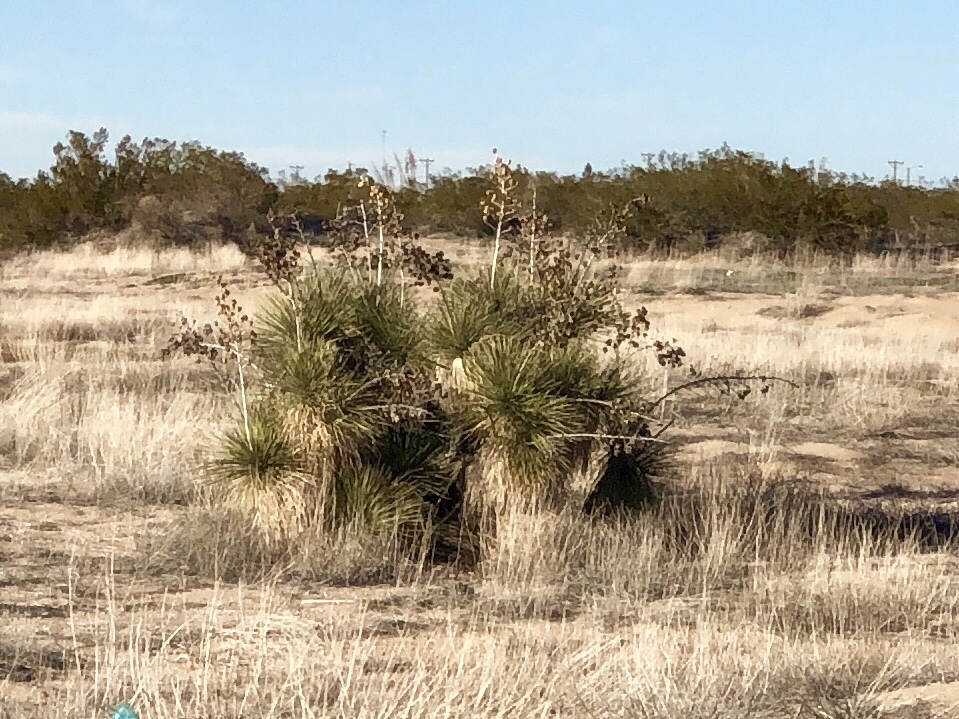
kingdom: Plantae
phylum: Tracheophyta
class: Liliopsida
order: Asparagales
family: Asparagaceae
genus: Yucca
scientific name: Yucca elata
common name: Palmella
